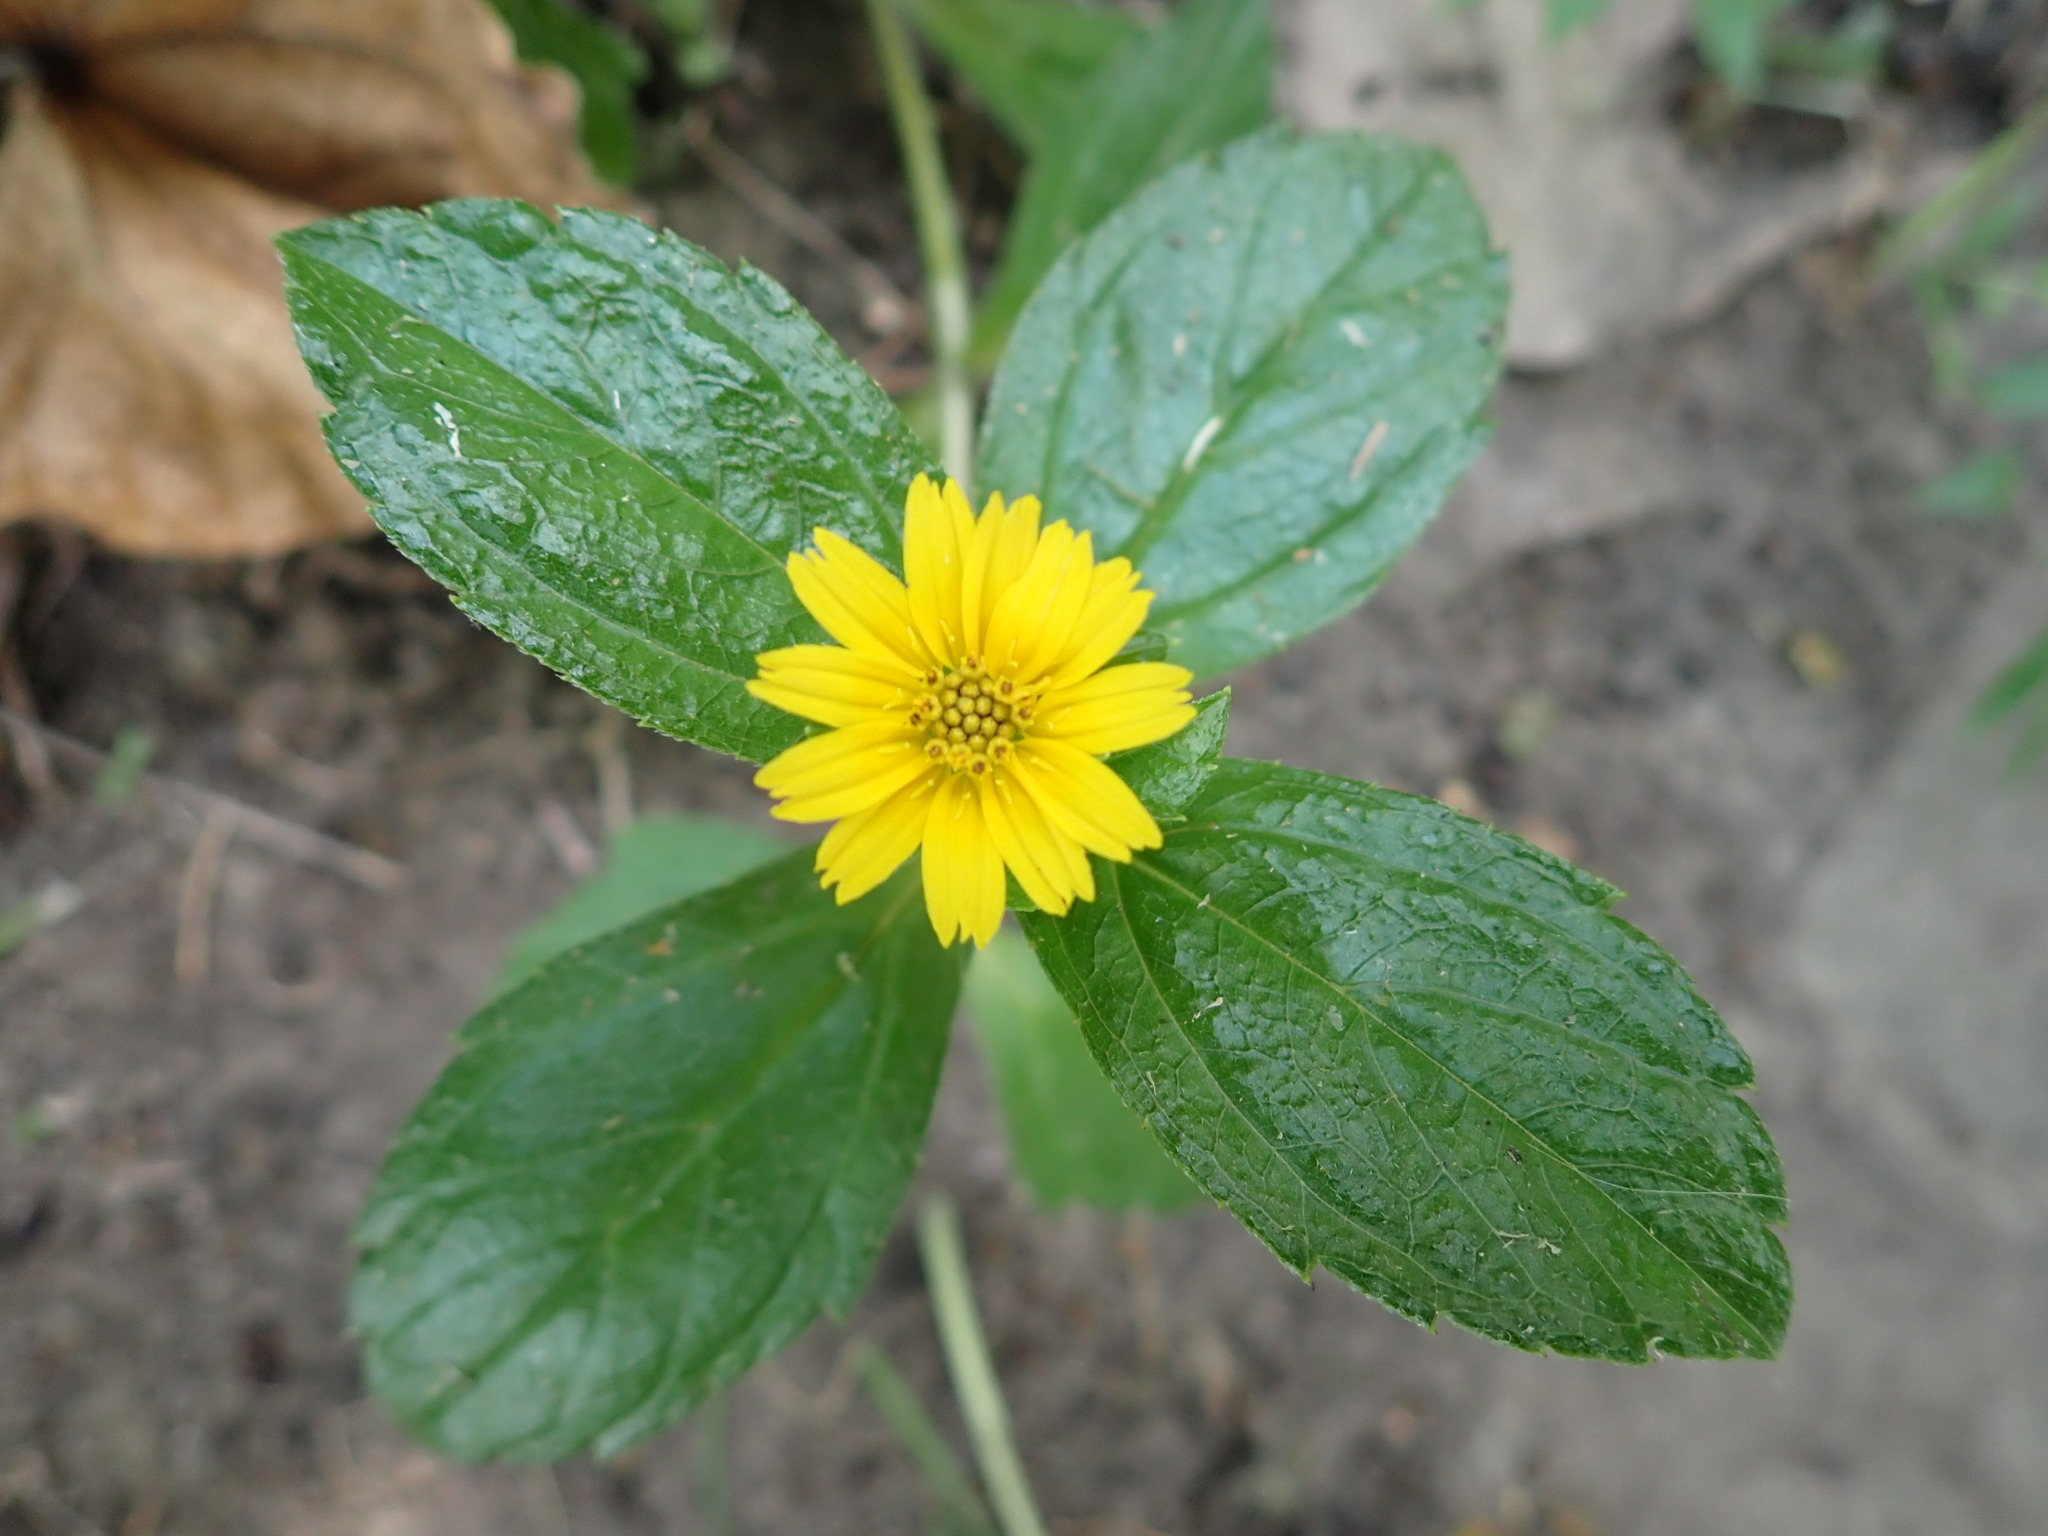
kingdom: Plantae
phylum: Tracheophyta
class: Magnoliopsida
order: Asterales
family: Asteraceae
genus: Sphagneticola
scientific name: Sphagneticola trilobata
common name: Bay biscayne creeping-oxeye
